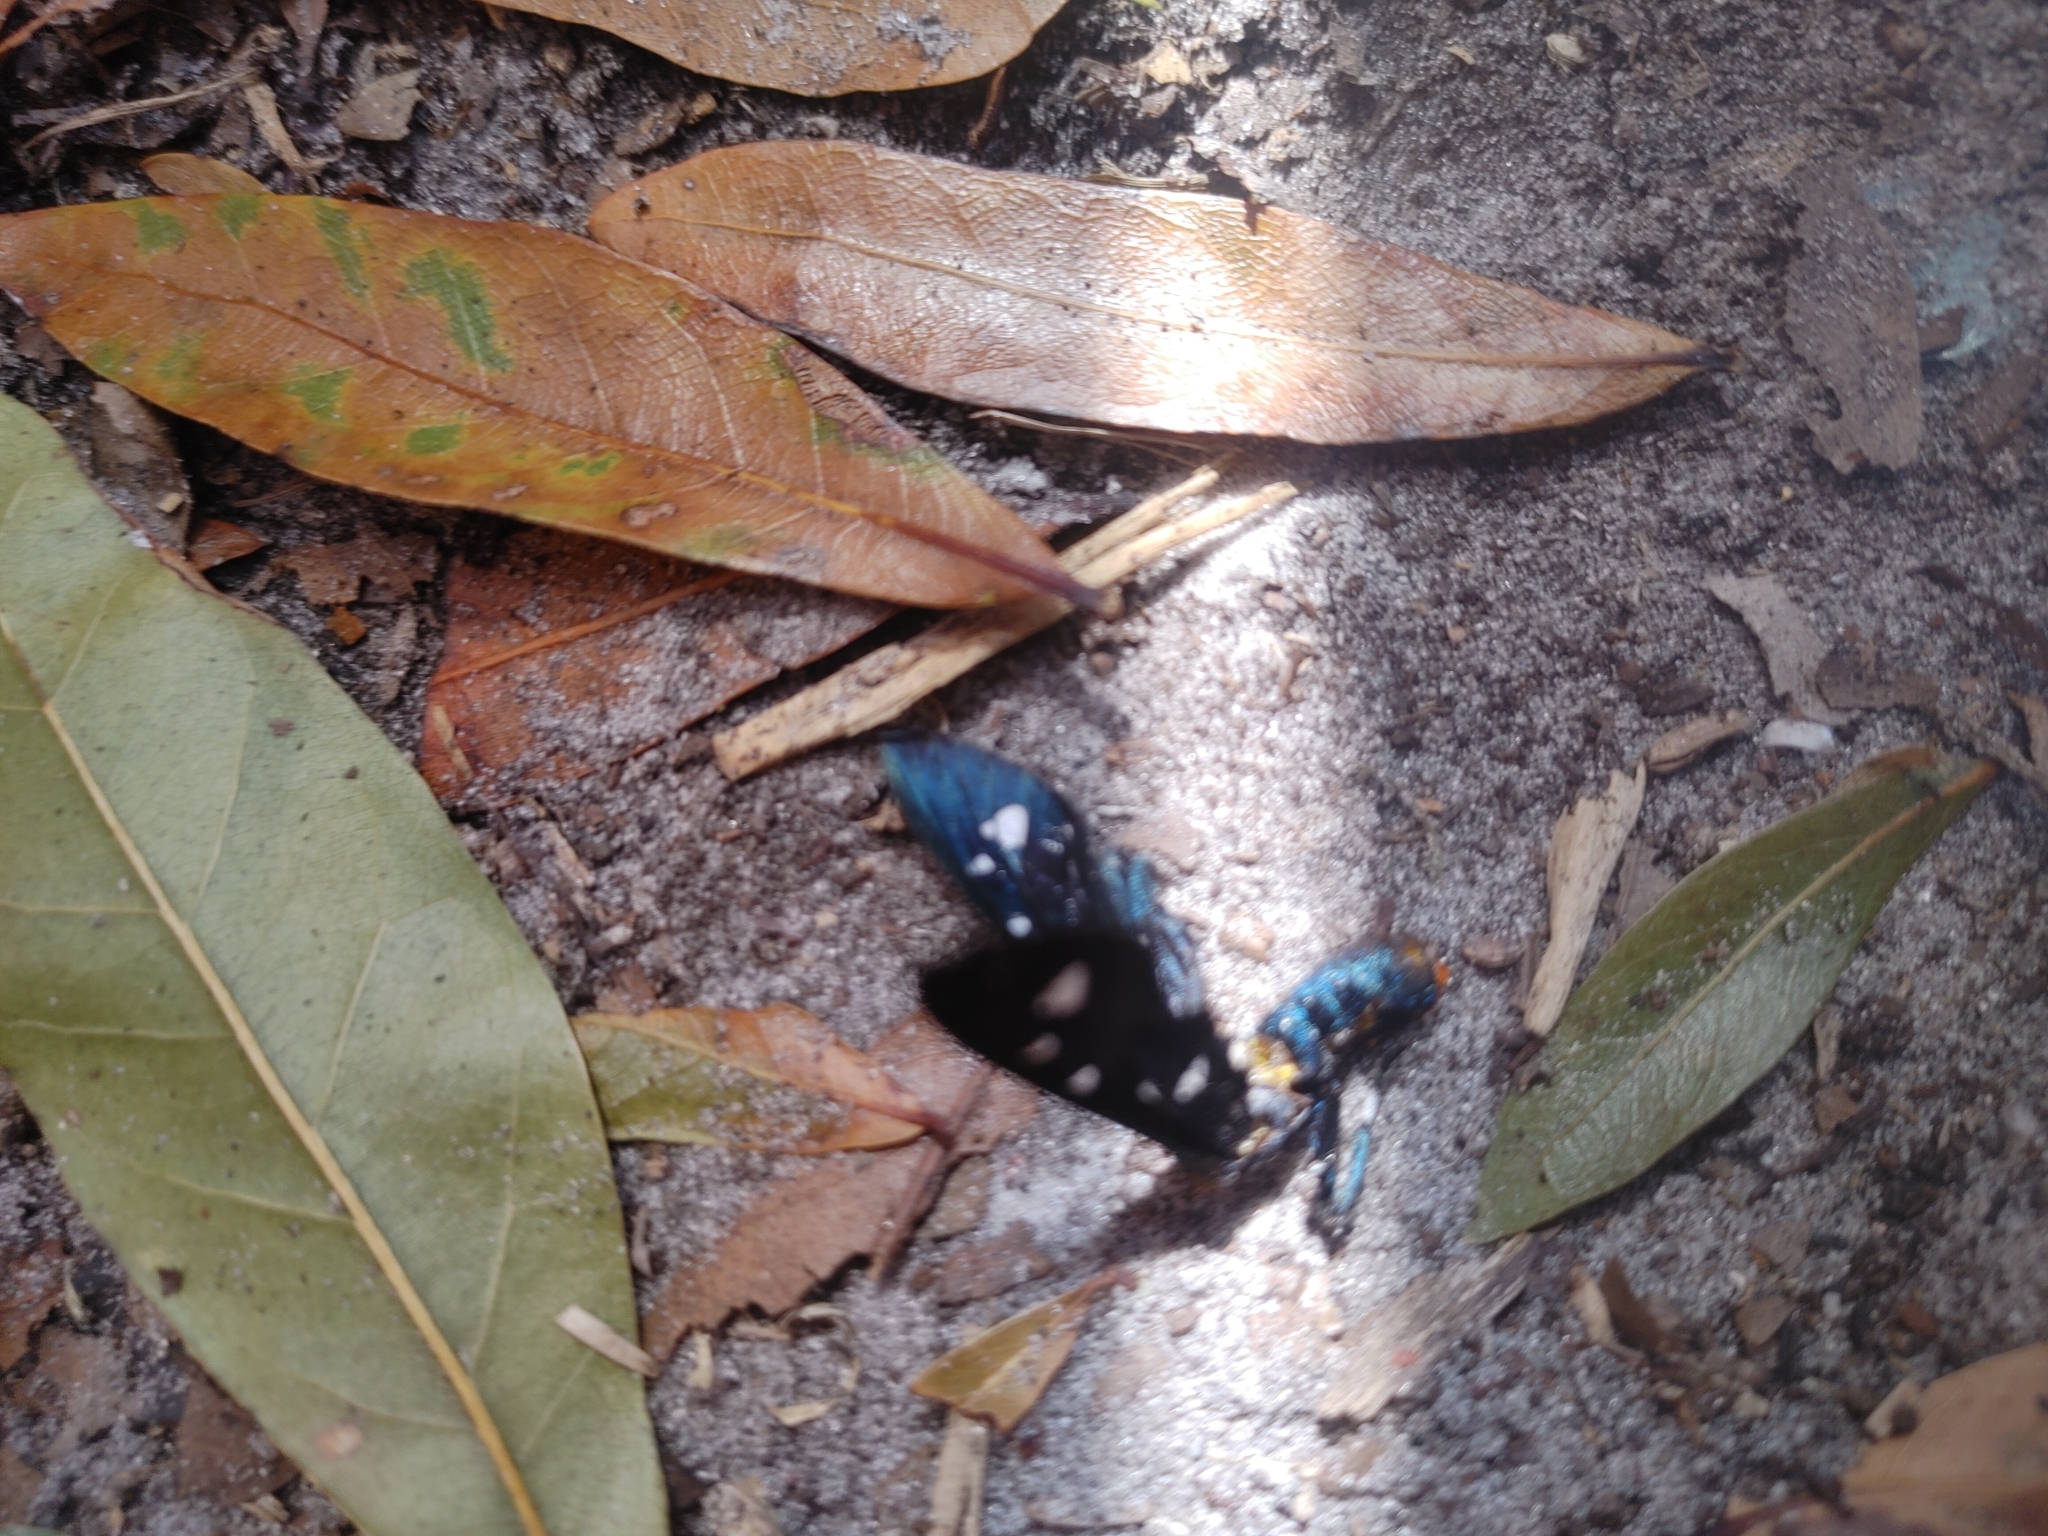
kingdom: Animalia
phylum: Arthropoda
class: Insecta
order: Lepidoptera
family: Erebidae
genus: Syntomeida
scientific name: Syntomeida epilais
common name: Polka-dot wasp moth
